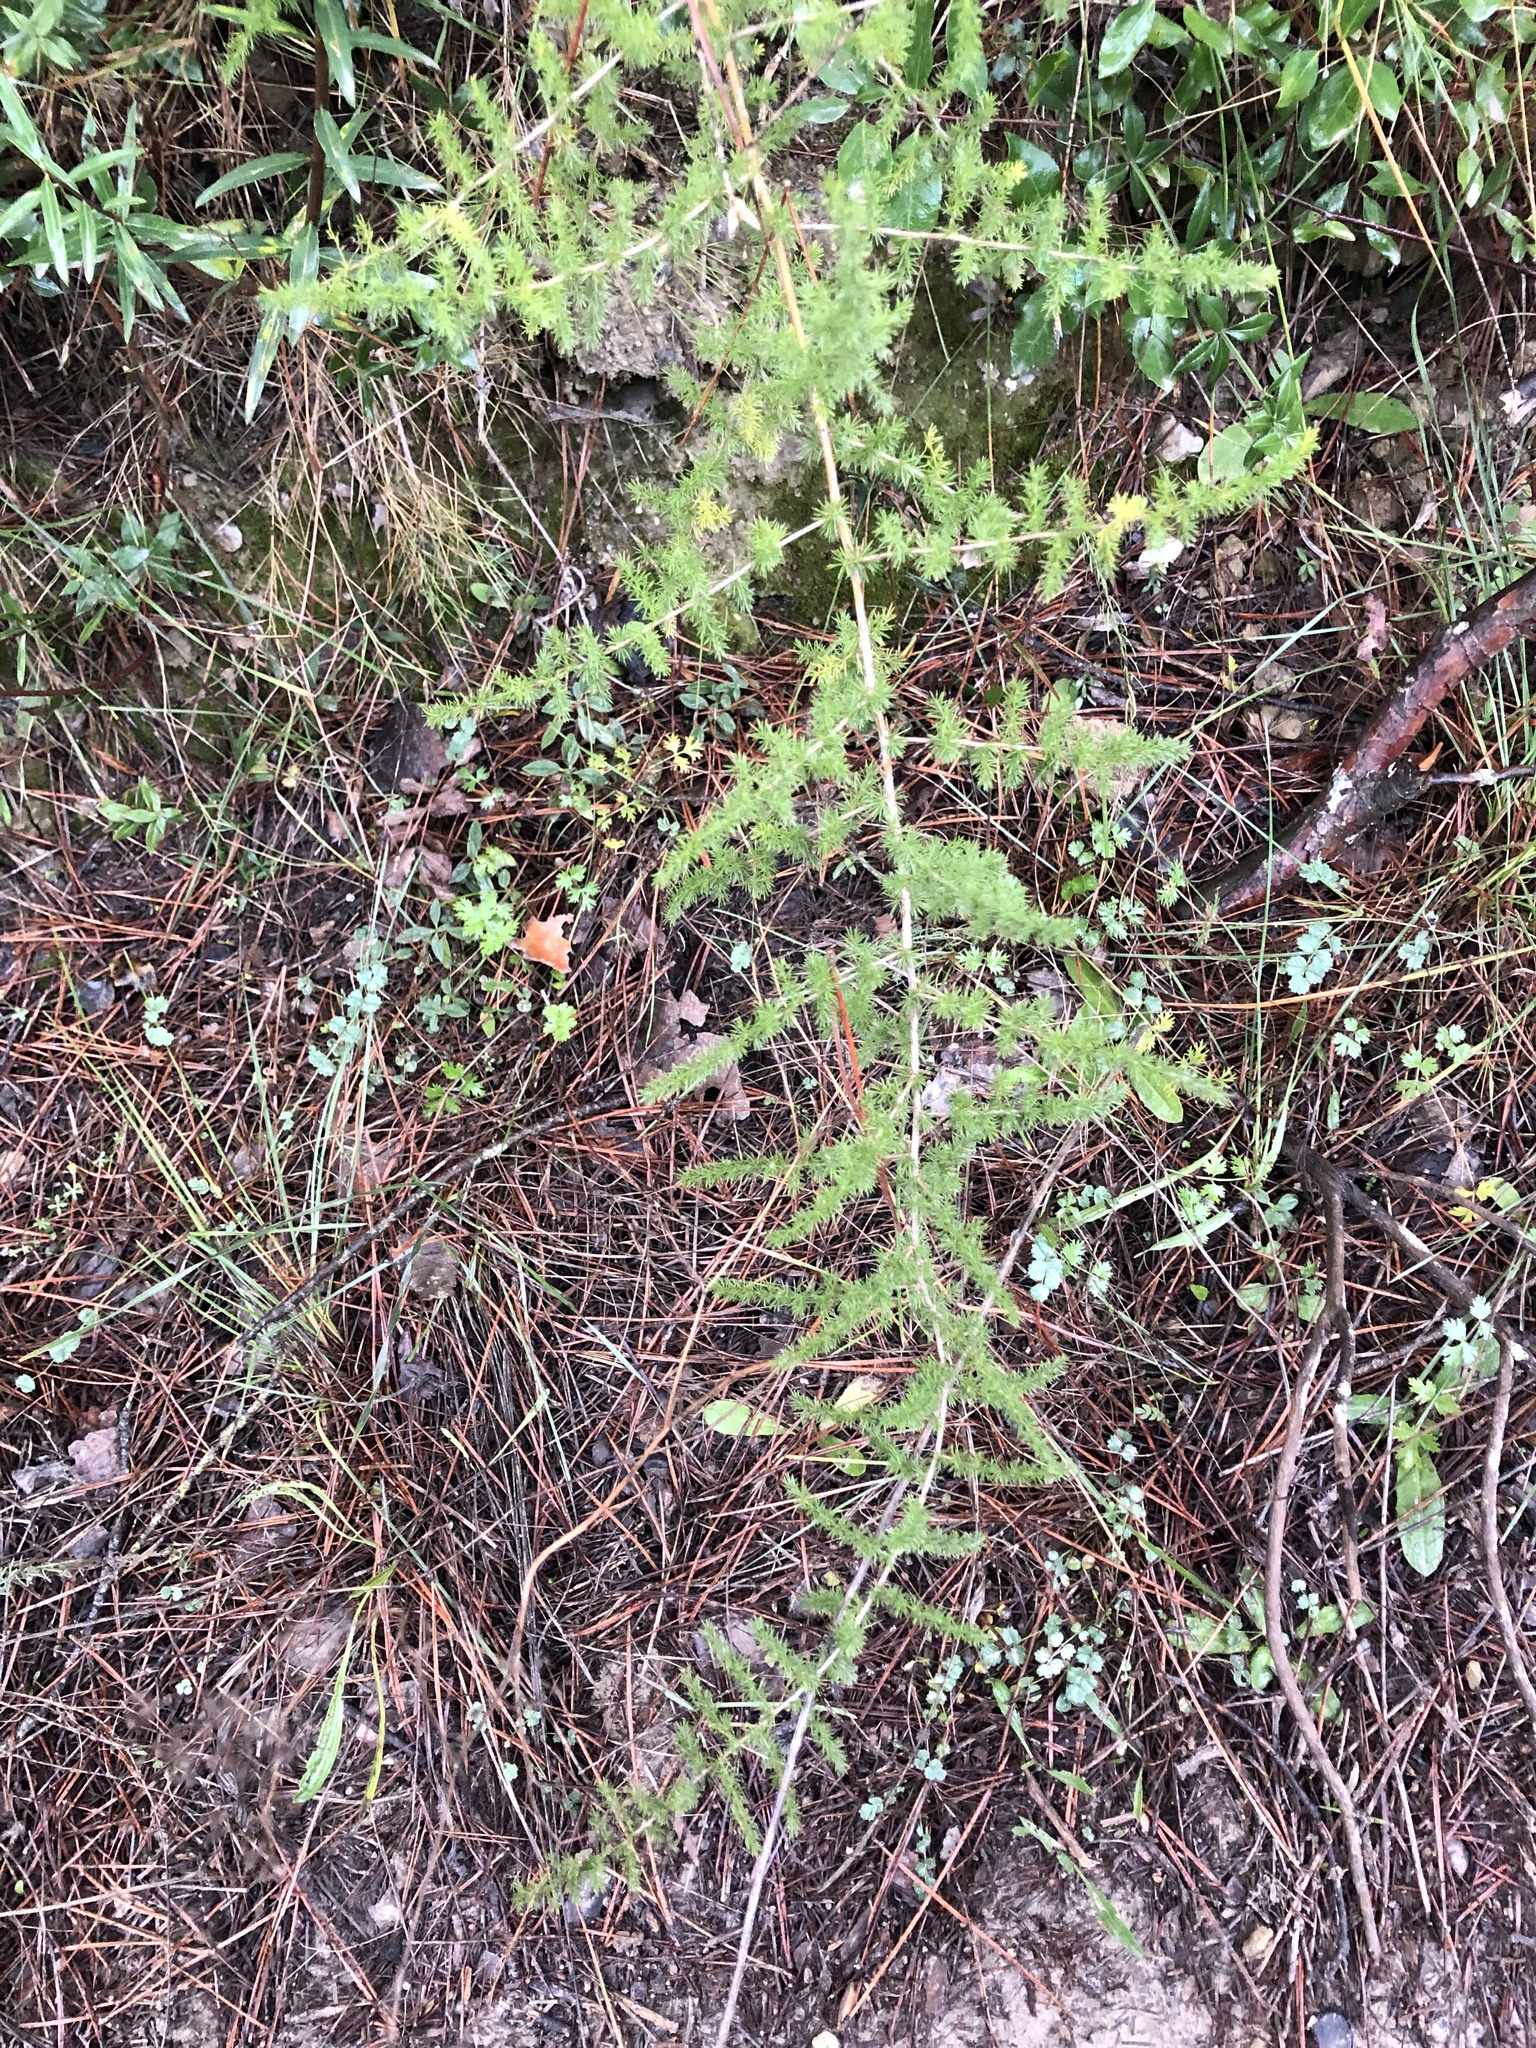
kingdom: Plantae
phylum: Tracheophyta
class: Liliopsida
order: Asparagales
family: Asparagaceae
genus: Asparagus
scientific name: Asparagus acutifolius
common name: Wild asparagus
